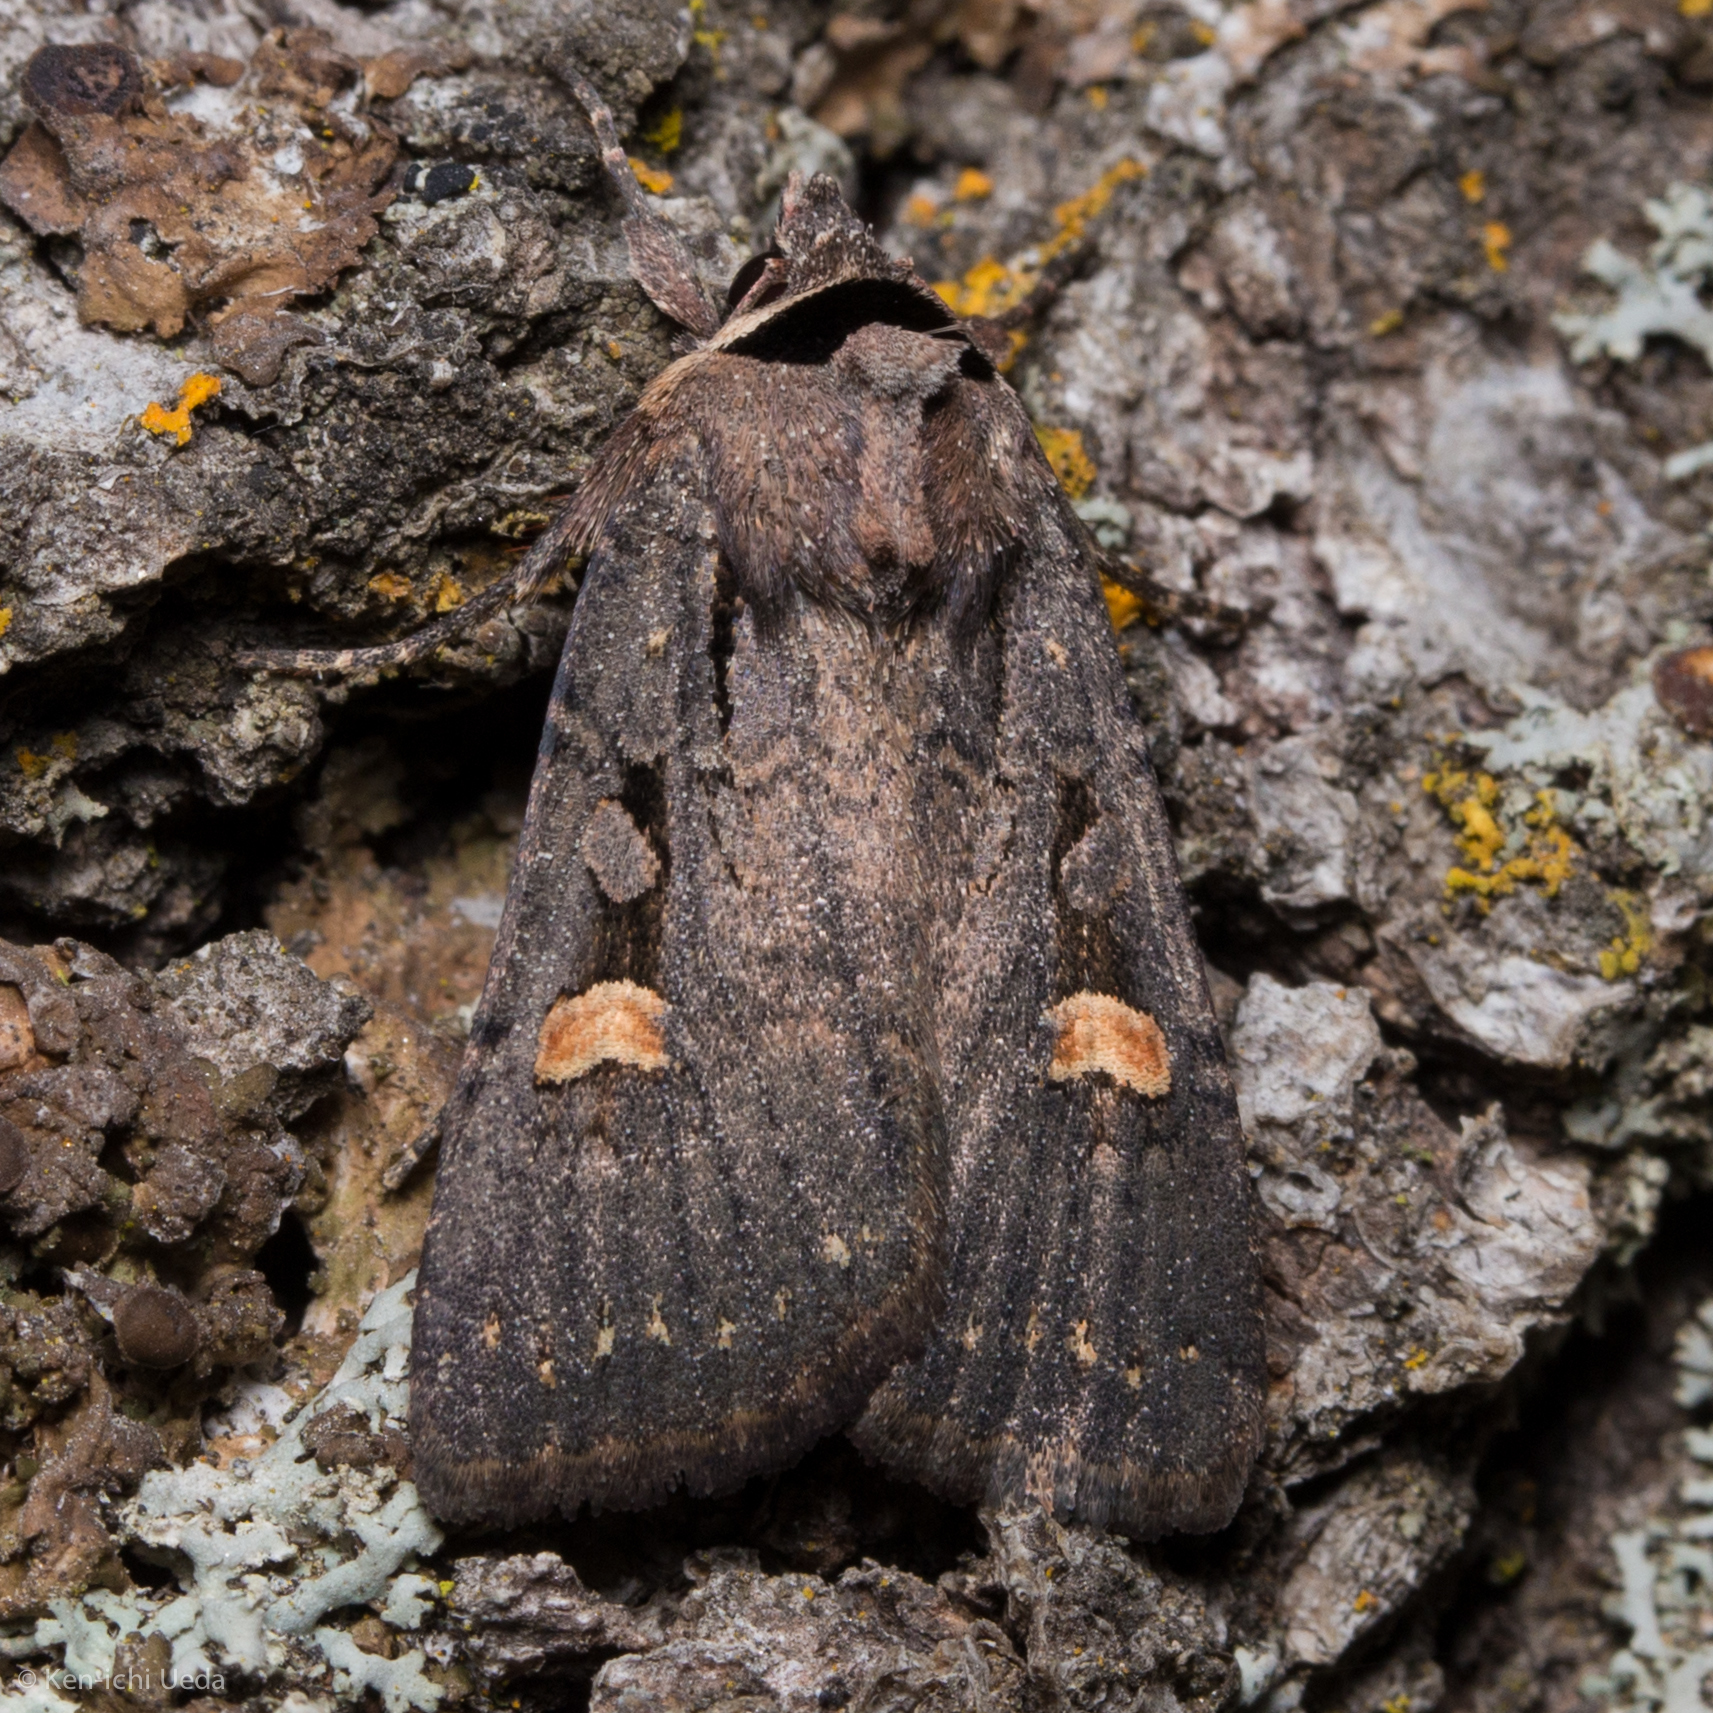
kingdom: Animalia
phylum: Arthropoda
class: Insecta
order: Lepidoptera
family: Noctuidae
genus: Adelphagrotis
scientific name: Adelphagrotis indeterminata
